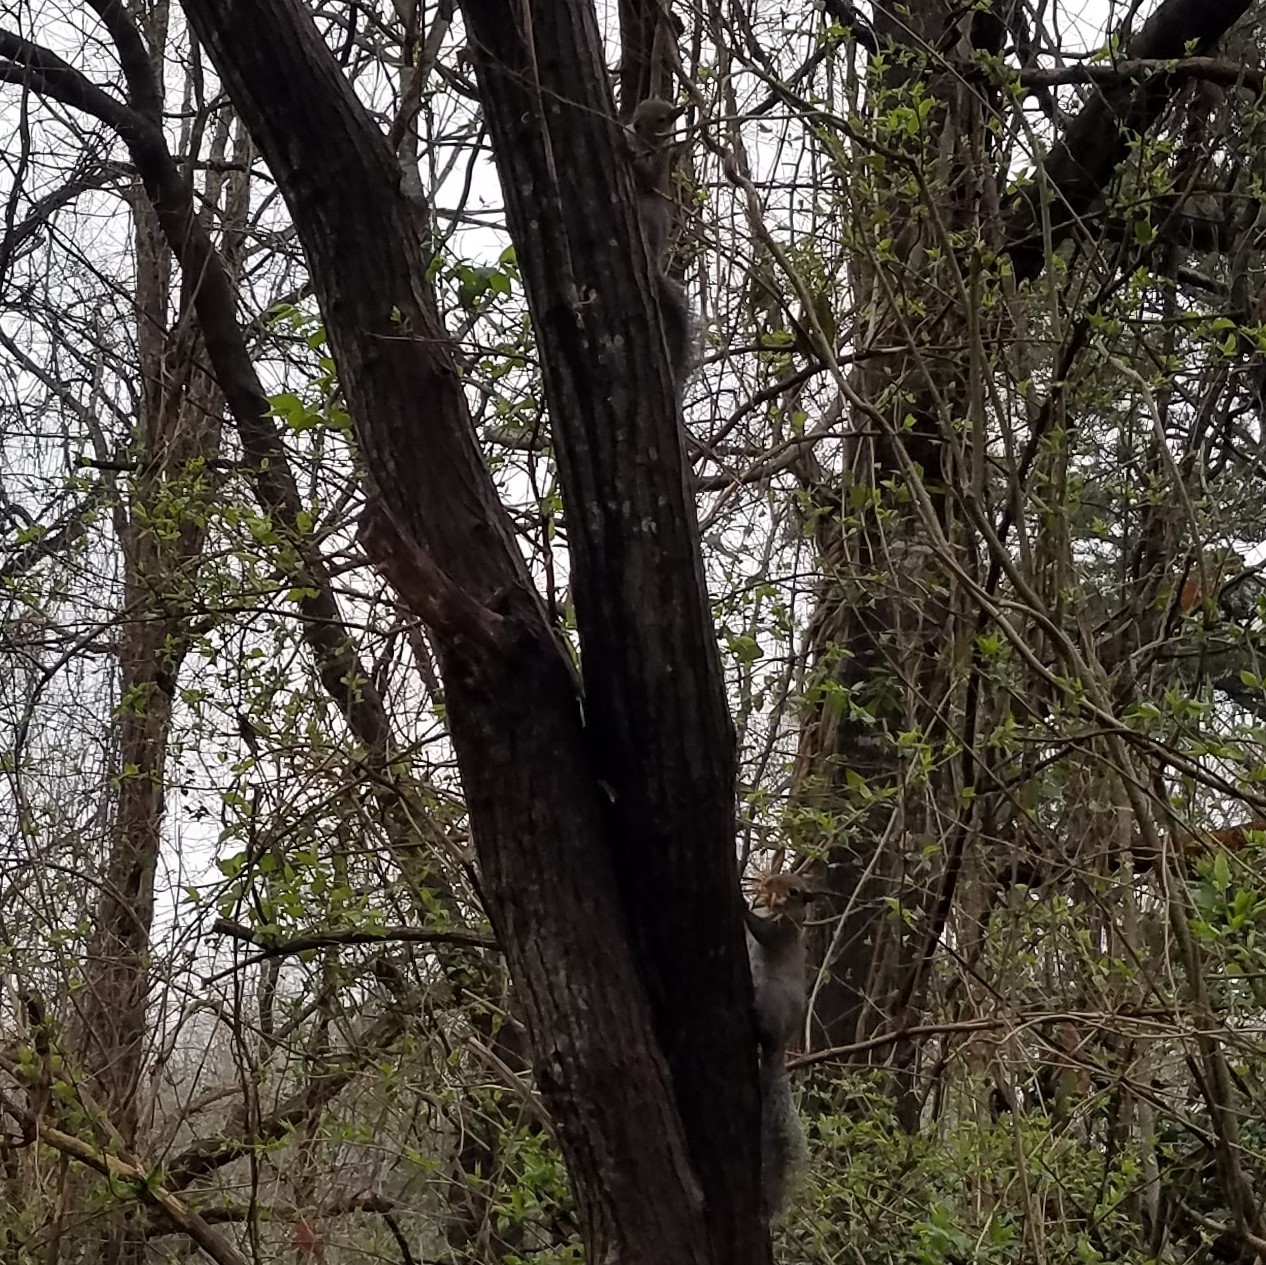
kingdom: Animalia
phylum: Chordata
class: Mammalia
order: Rodentia
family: Sciuridae
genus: Sciurus
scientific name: Sciurus carolinensis
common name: Eastern gray squirrel
